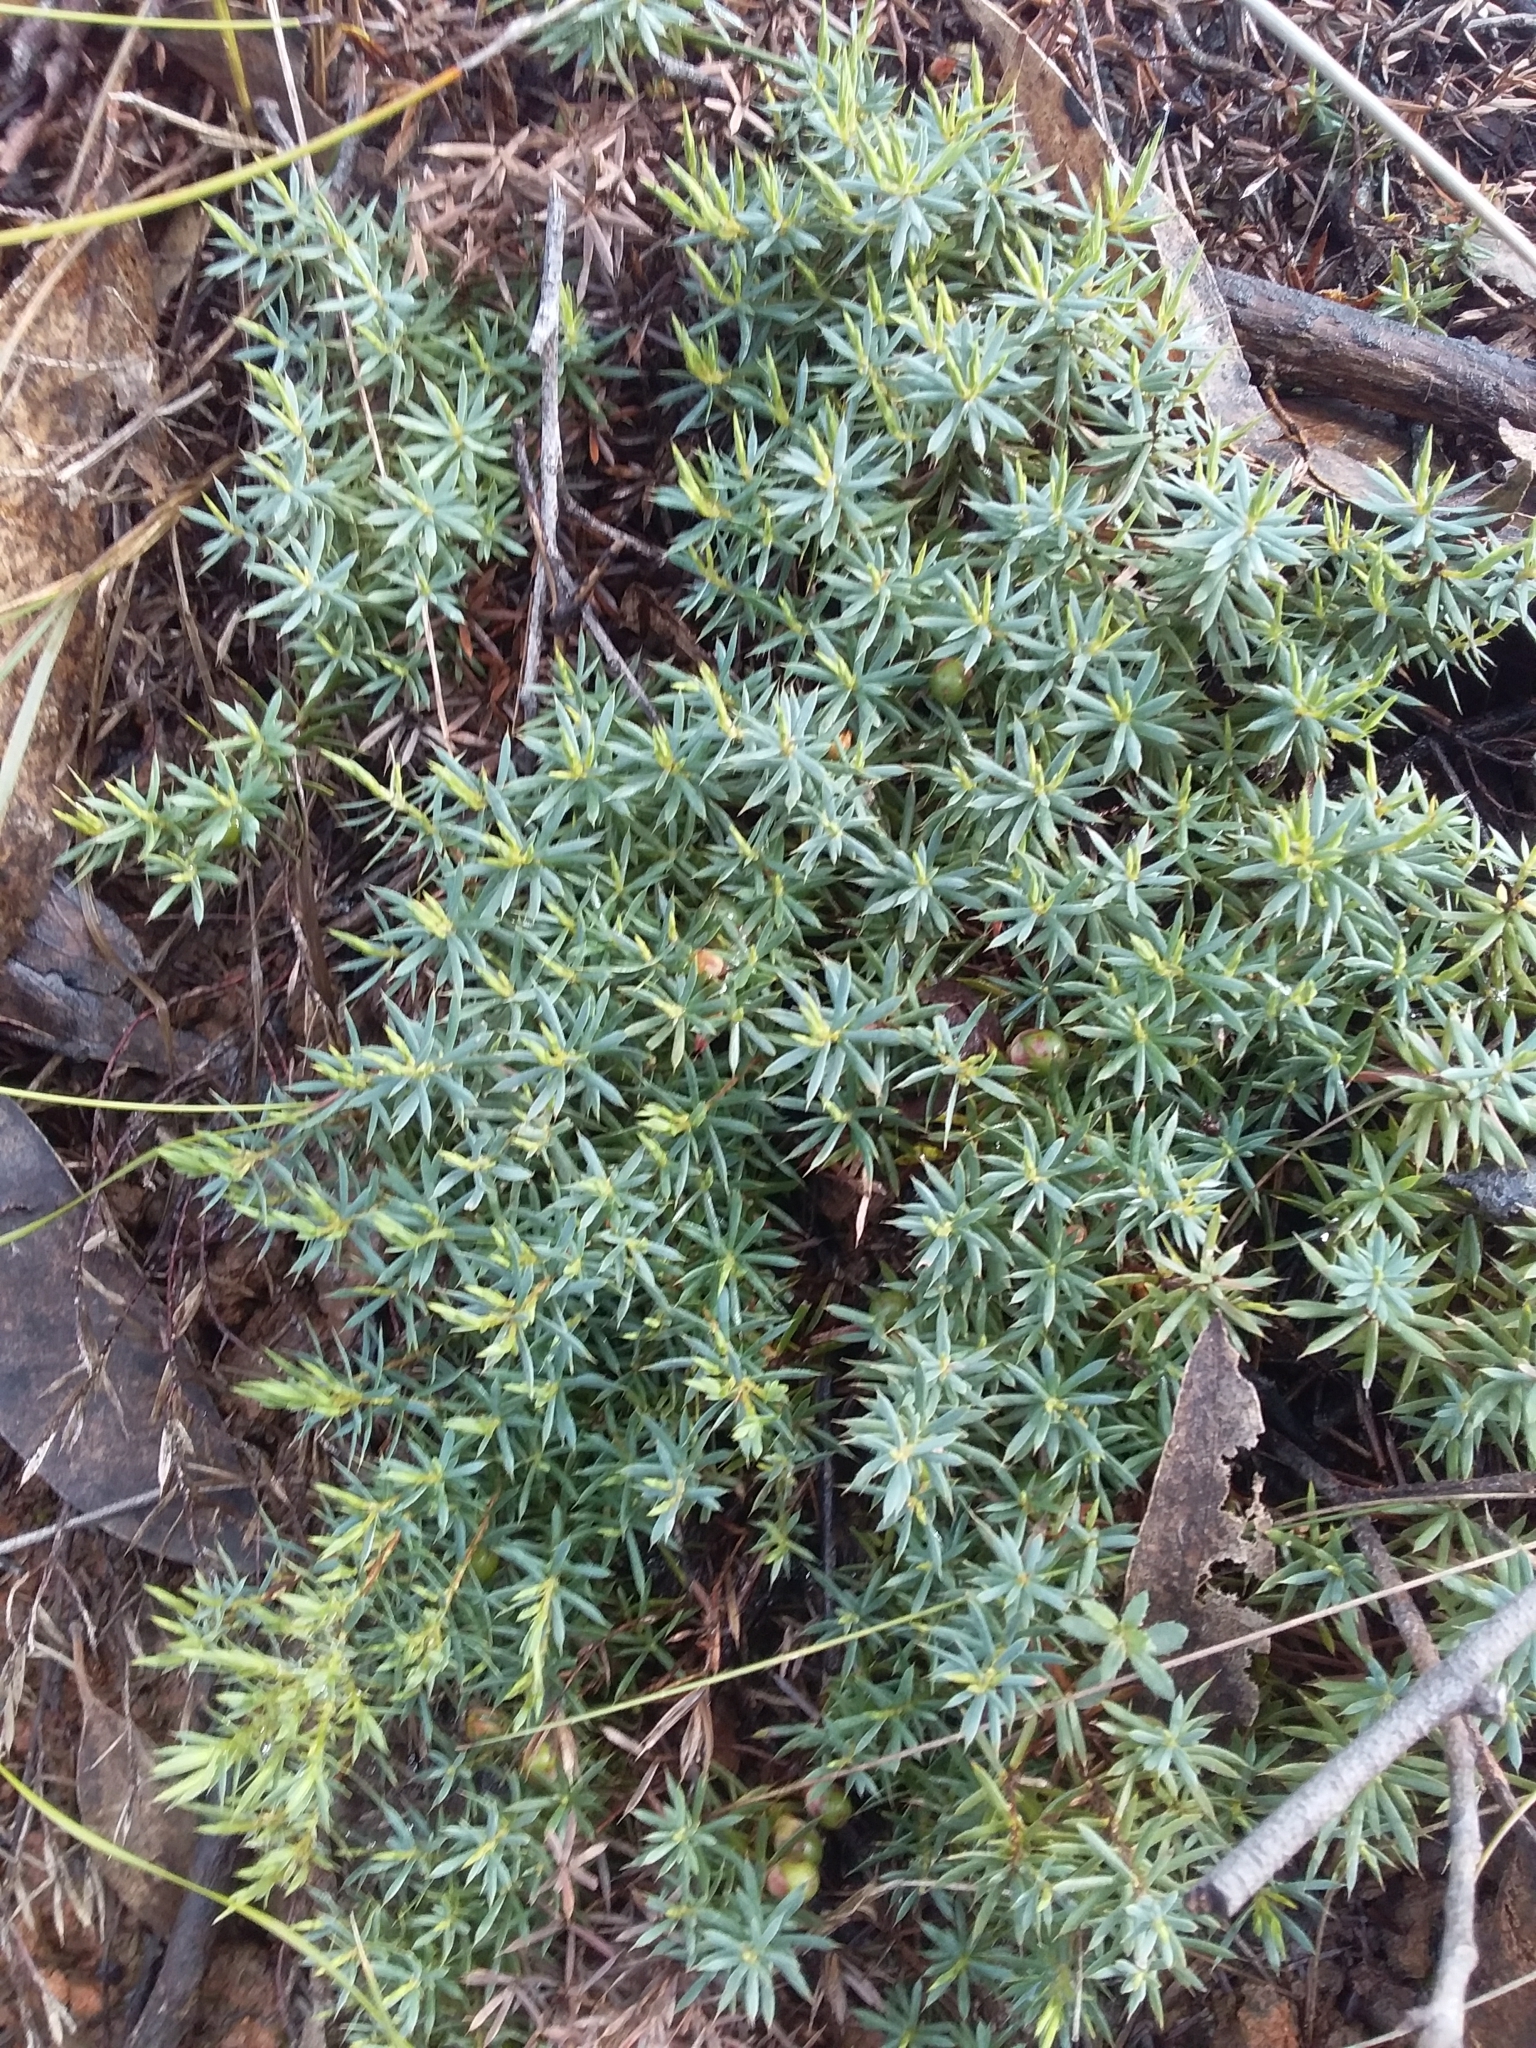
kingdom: Plantae
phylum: Tracheophyta
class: Magnoliopsida
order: Ericales
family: Ericaceae
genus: Styphelia
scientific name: Styphelia humifusa
